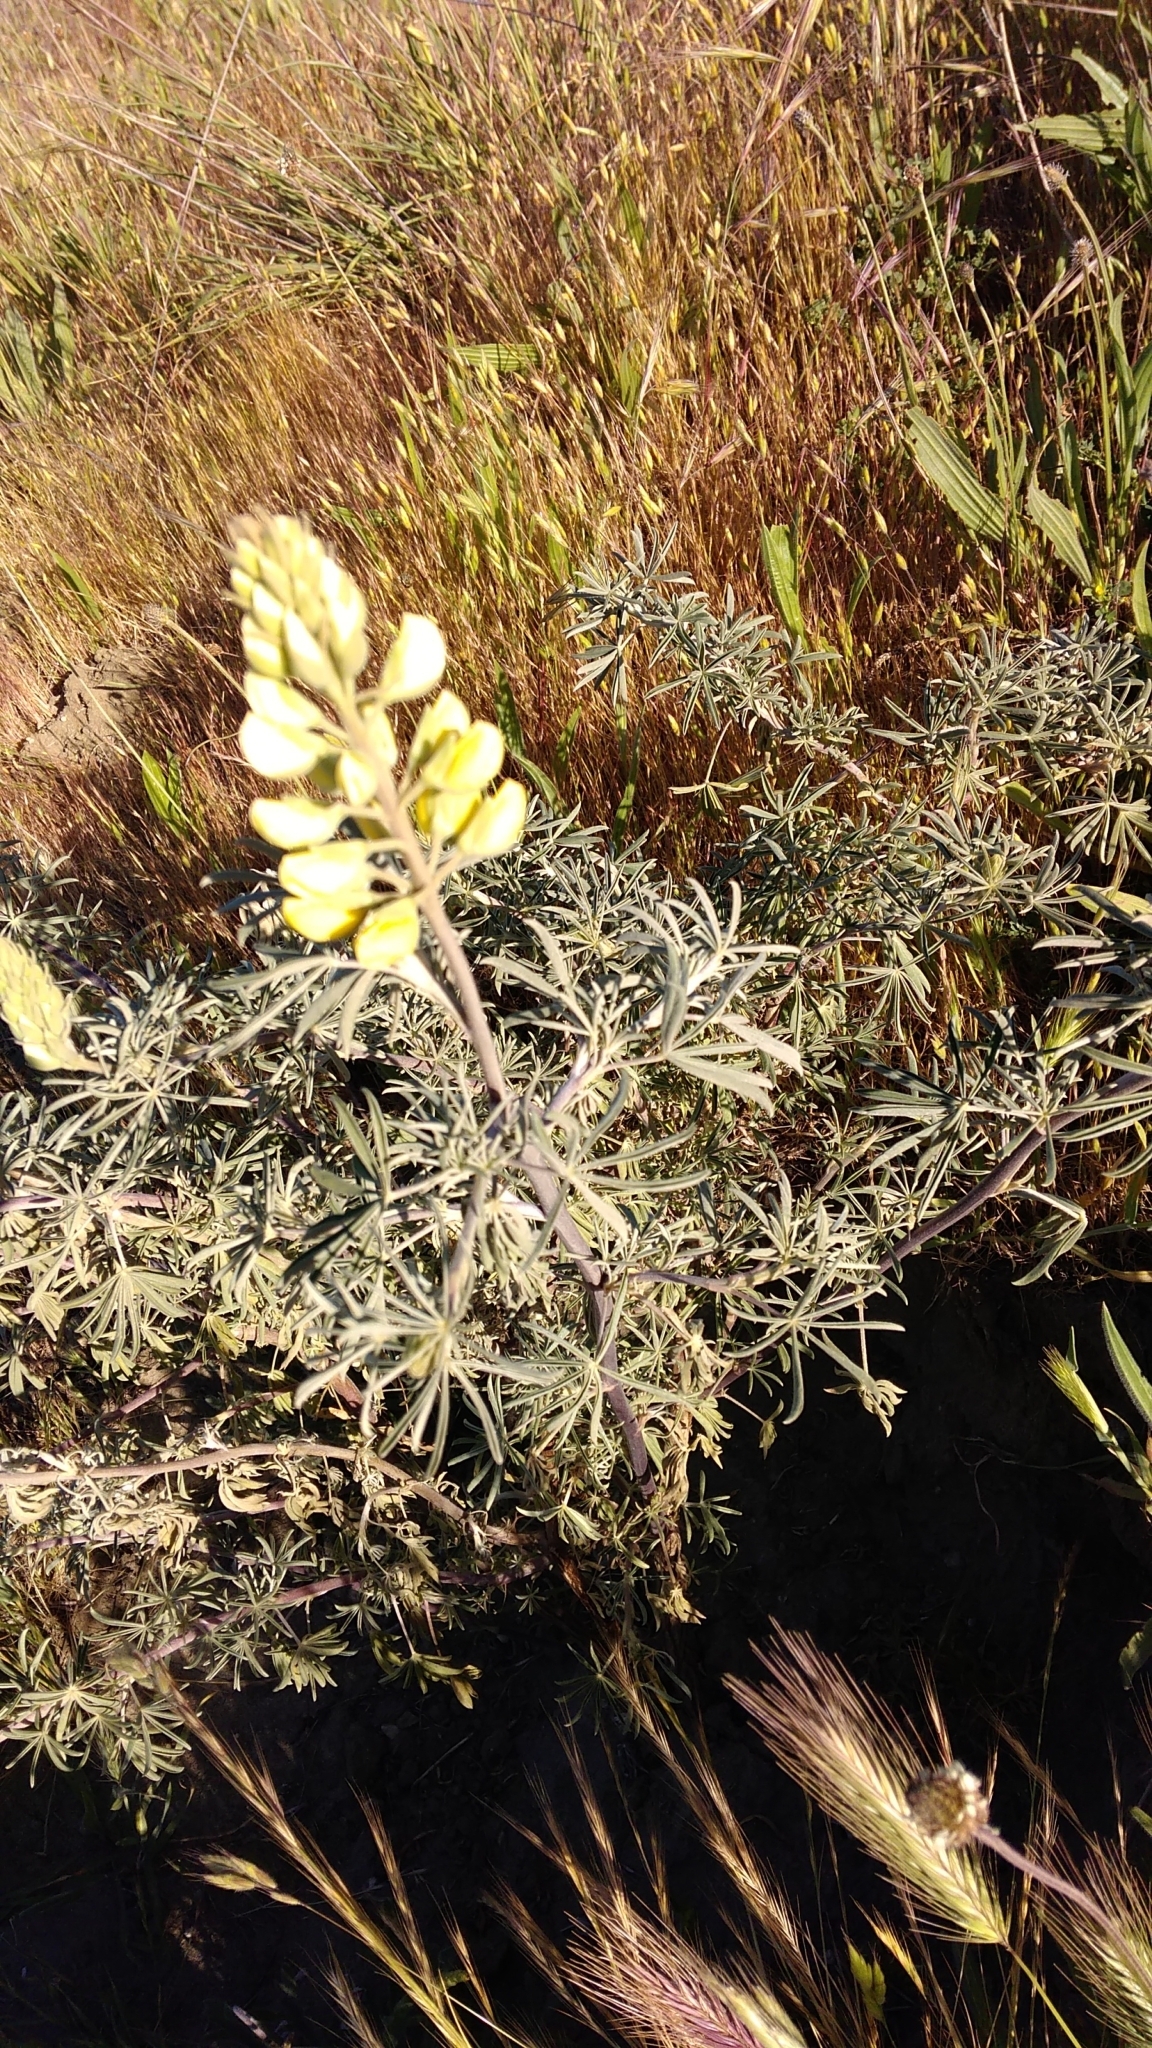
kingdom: Plantae
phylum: Tracheophyta
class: Magnoliopsida
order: Fabales
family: Fabaceae
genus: Lupinus
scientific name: Lupinus arboreus
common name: Yellow bush lupine
